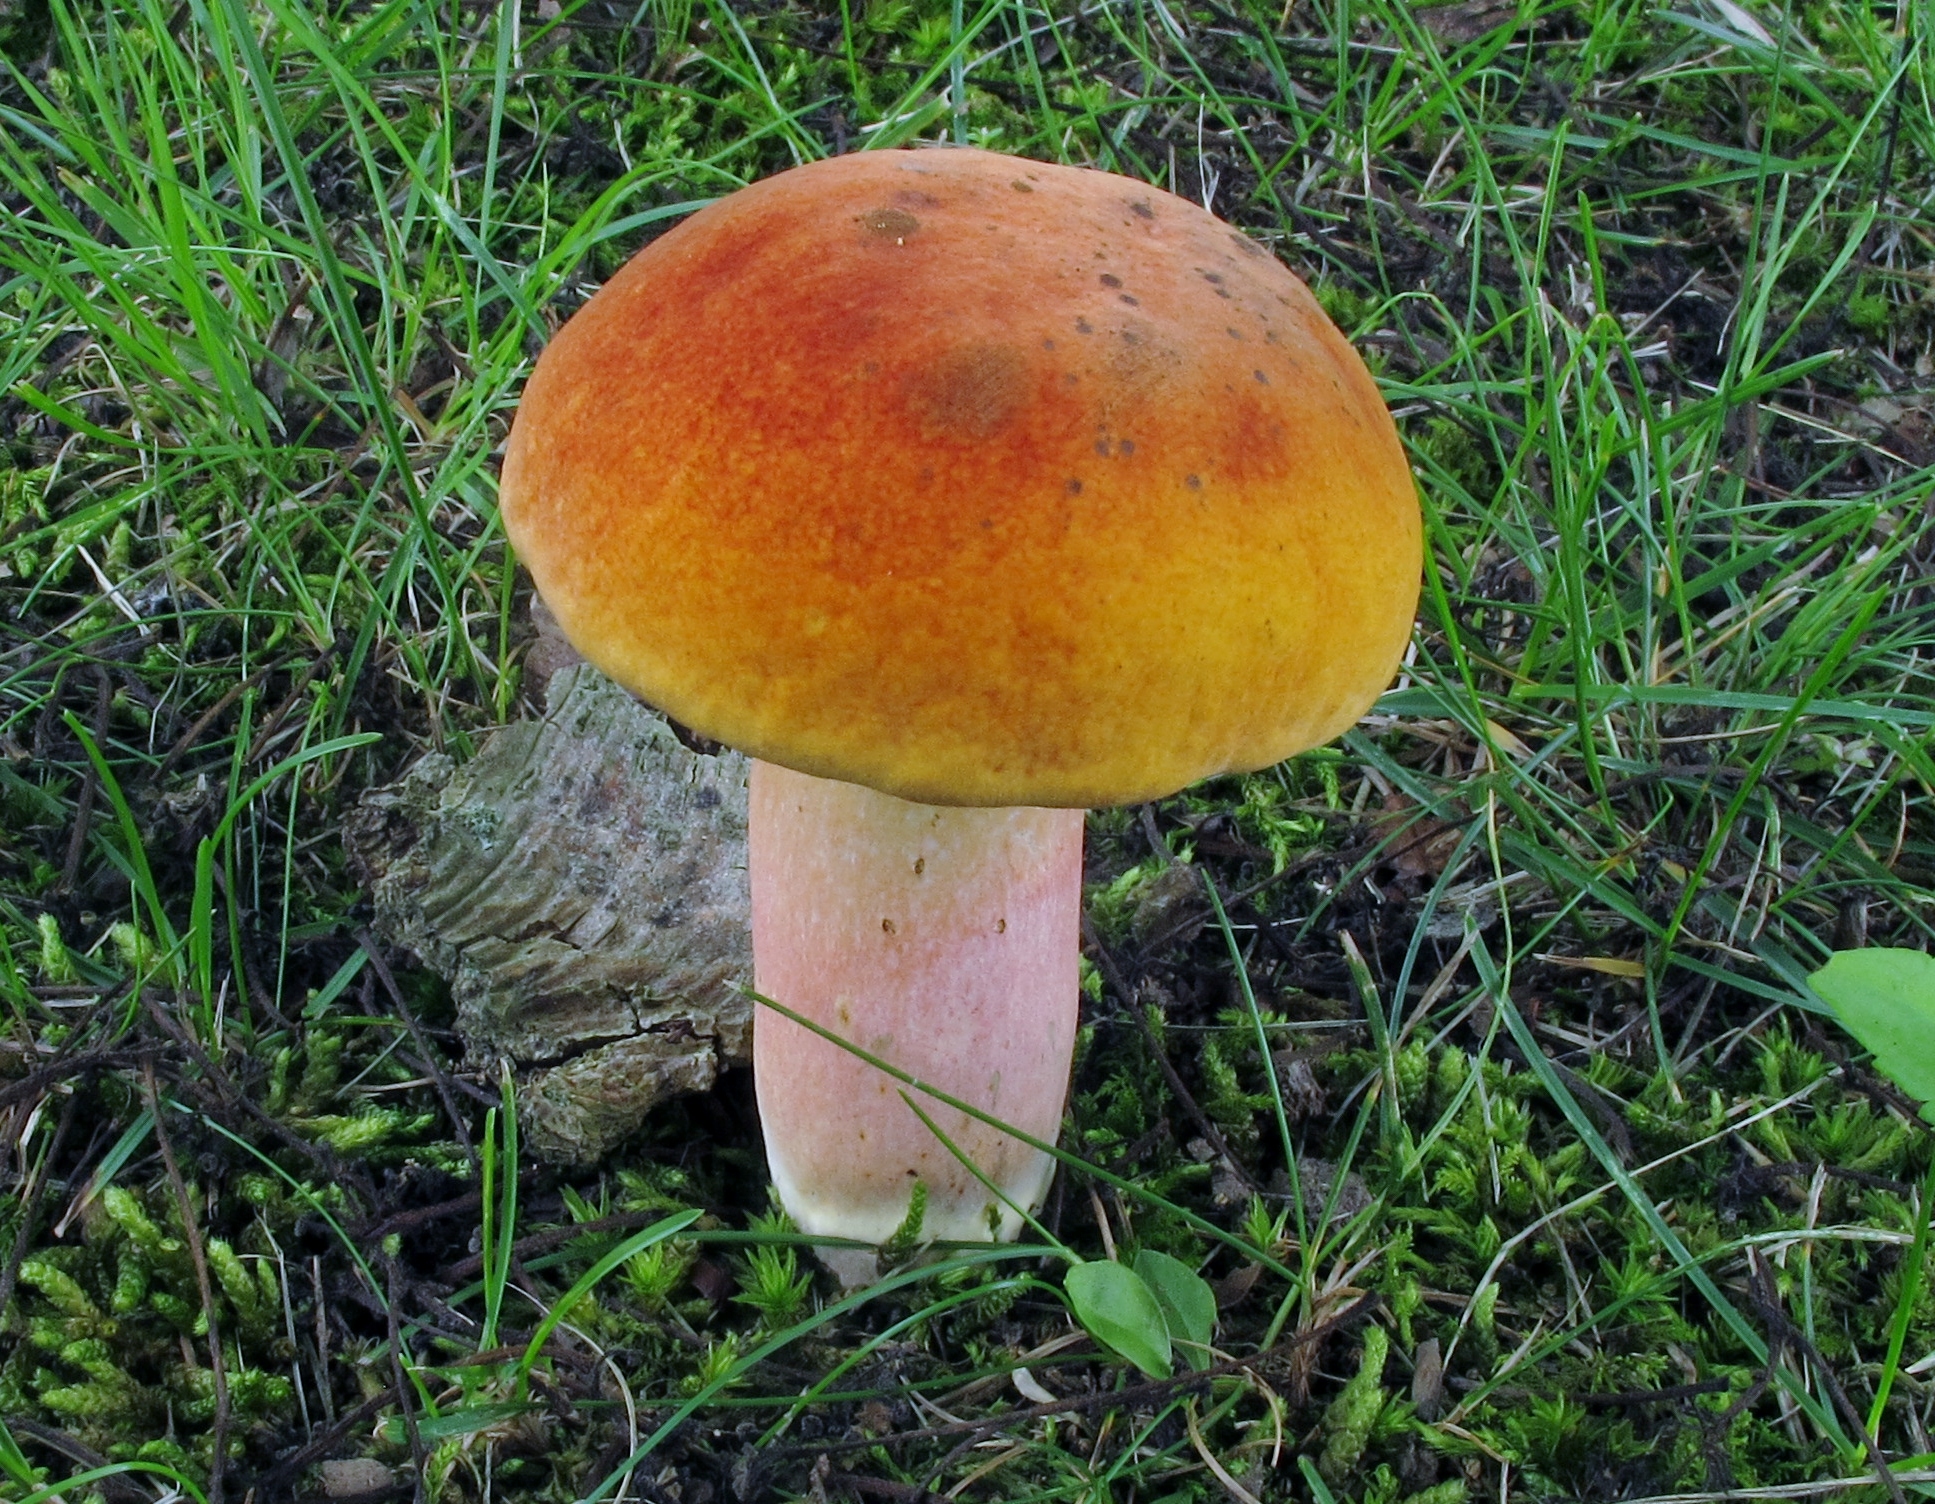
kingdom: Fungi
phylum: Basidiomycota
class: Agaricomycetes
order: Boletales
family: Boletaceae
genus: Boletus
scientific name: Boletus subvelutipes
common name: Red-mouth bolete
